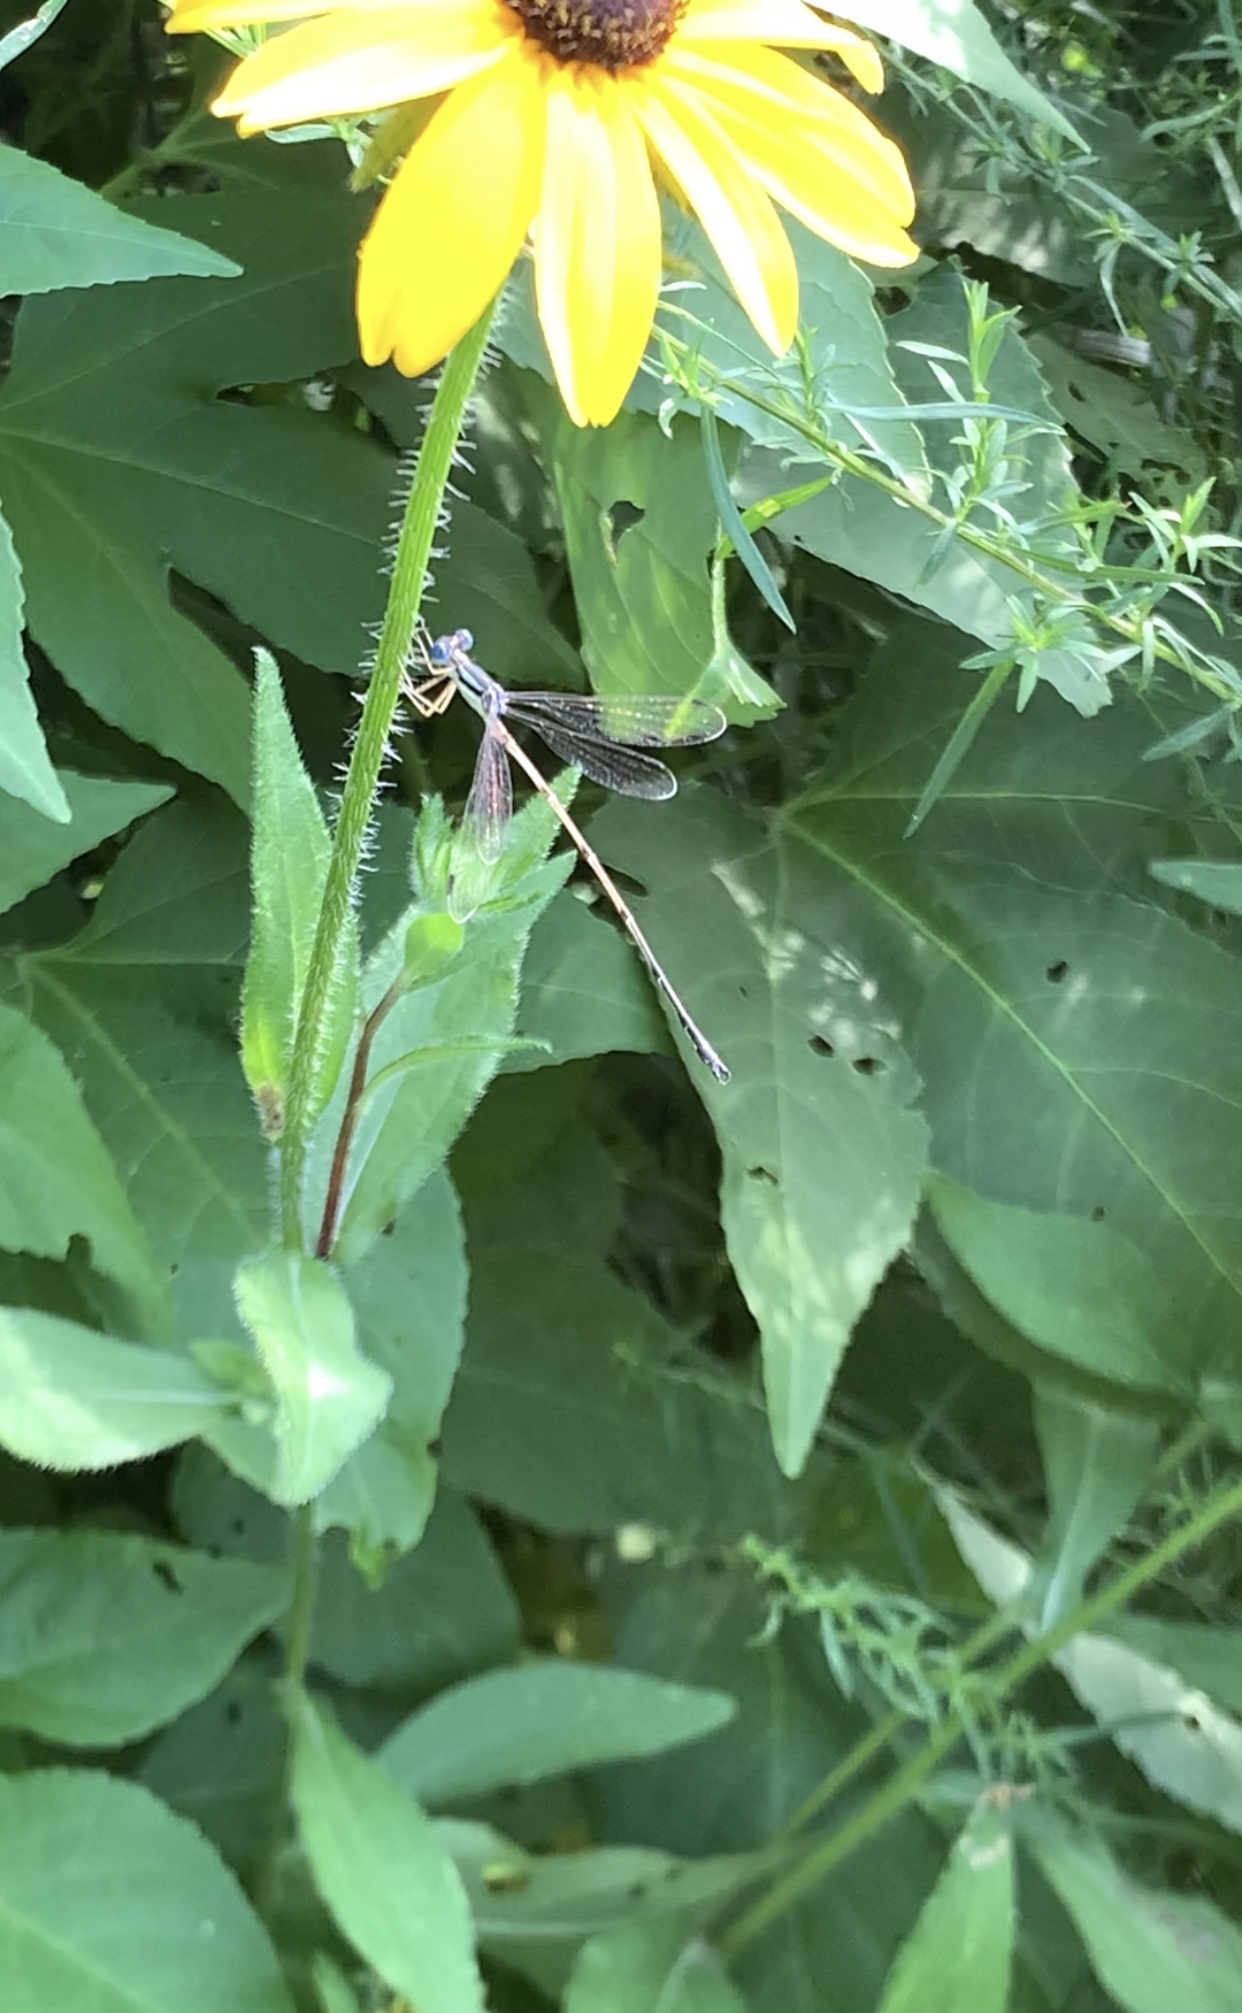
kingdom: Animalia
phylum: Arthropoda
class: Insecta
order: Odonata
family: Lestidae
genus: Lestes
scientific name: Lestes rectangularis
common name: Slender spreadwing
